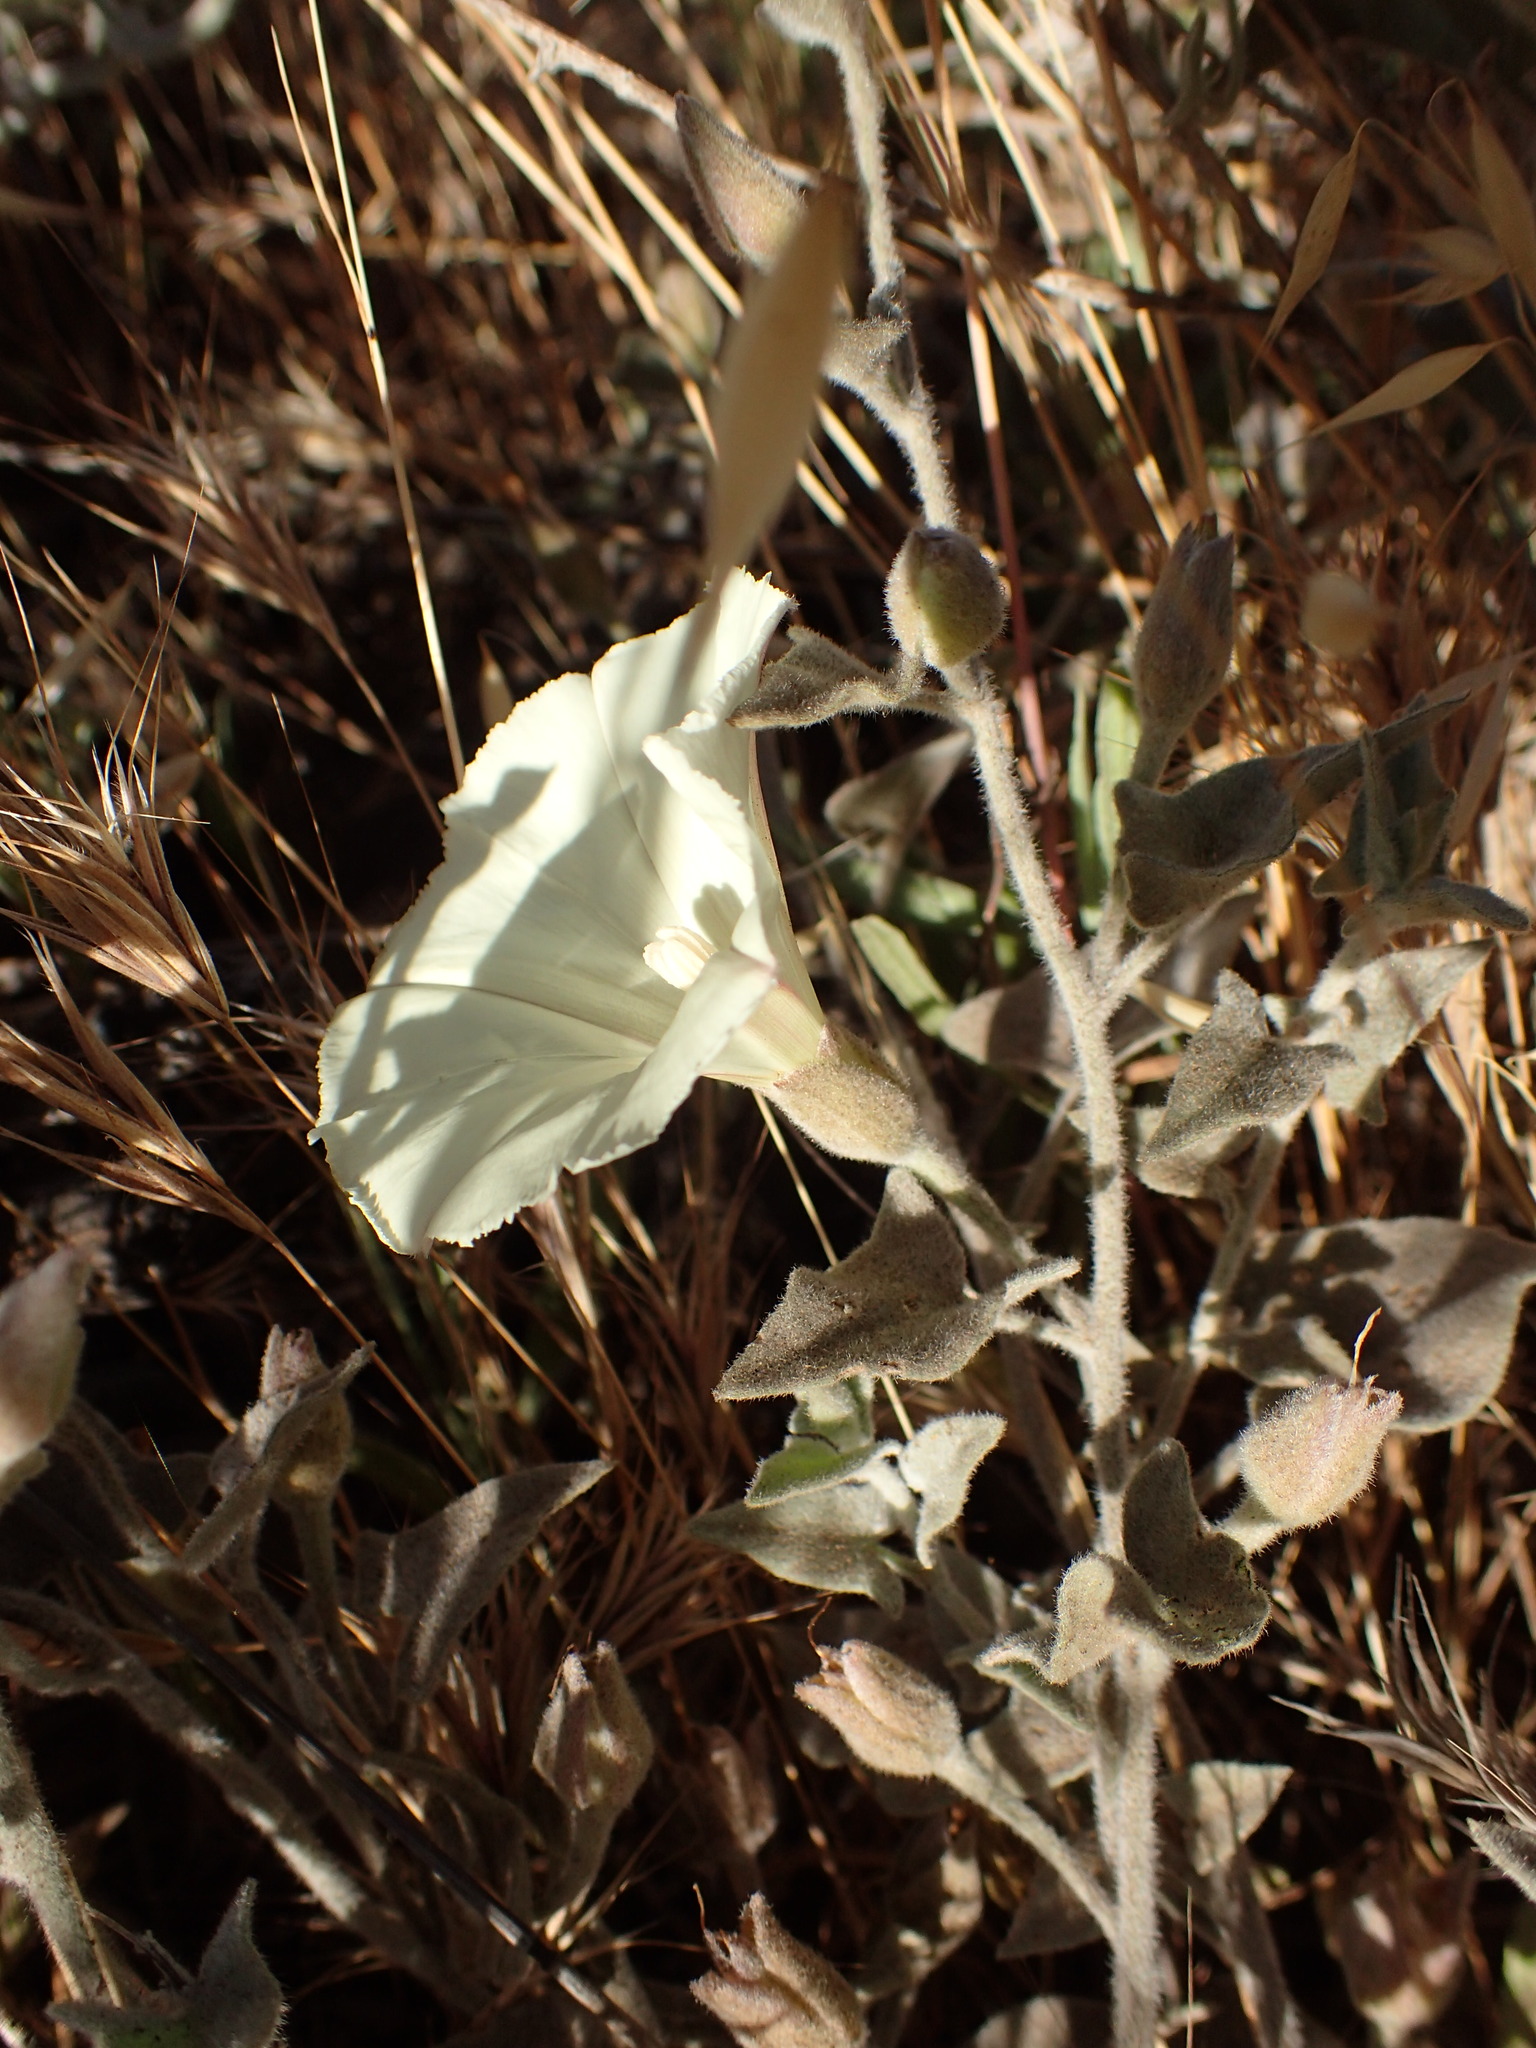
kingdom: Plantae
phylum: Tracheophyta
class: Magnoliopsida
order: Solanales
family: Convolvulaceae
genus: Calystegia
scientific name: Calystegia malacophylla
